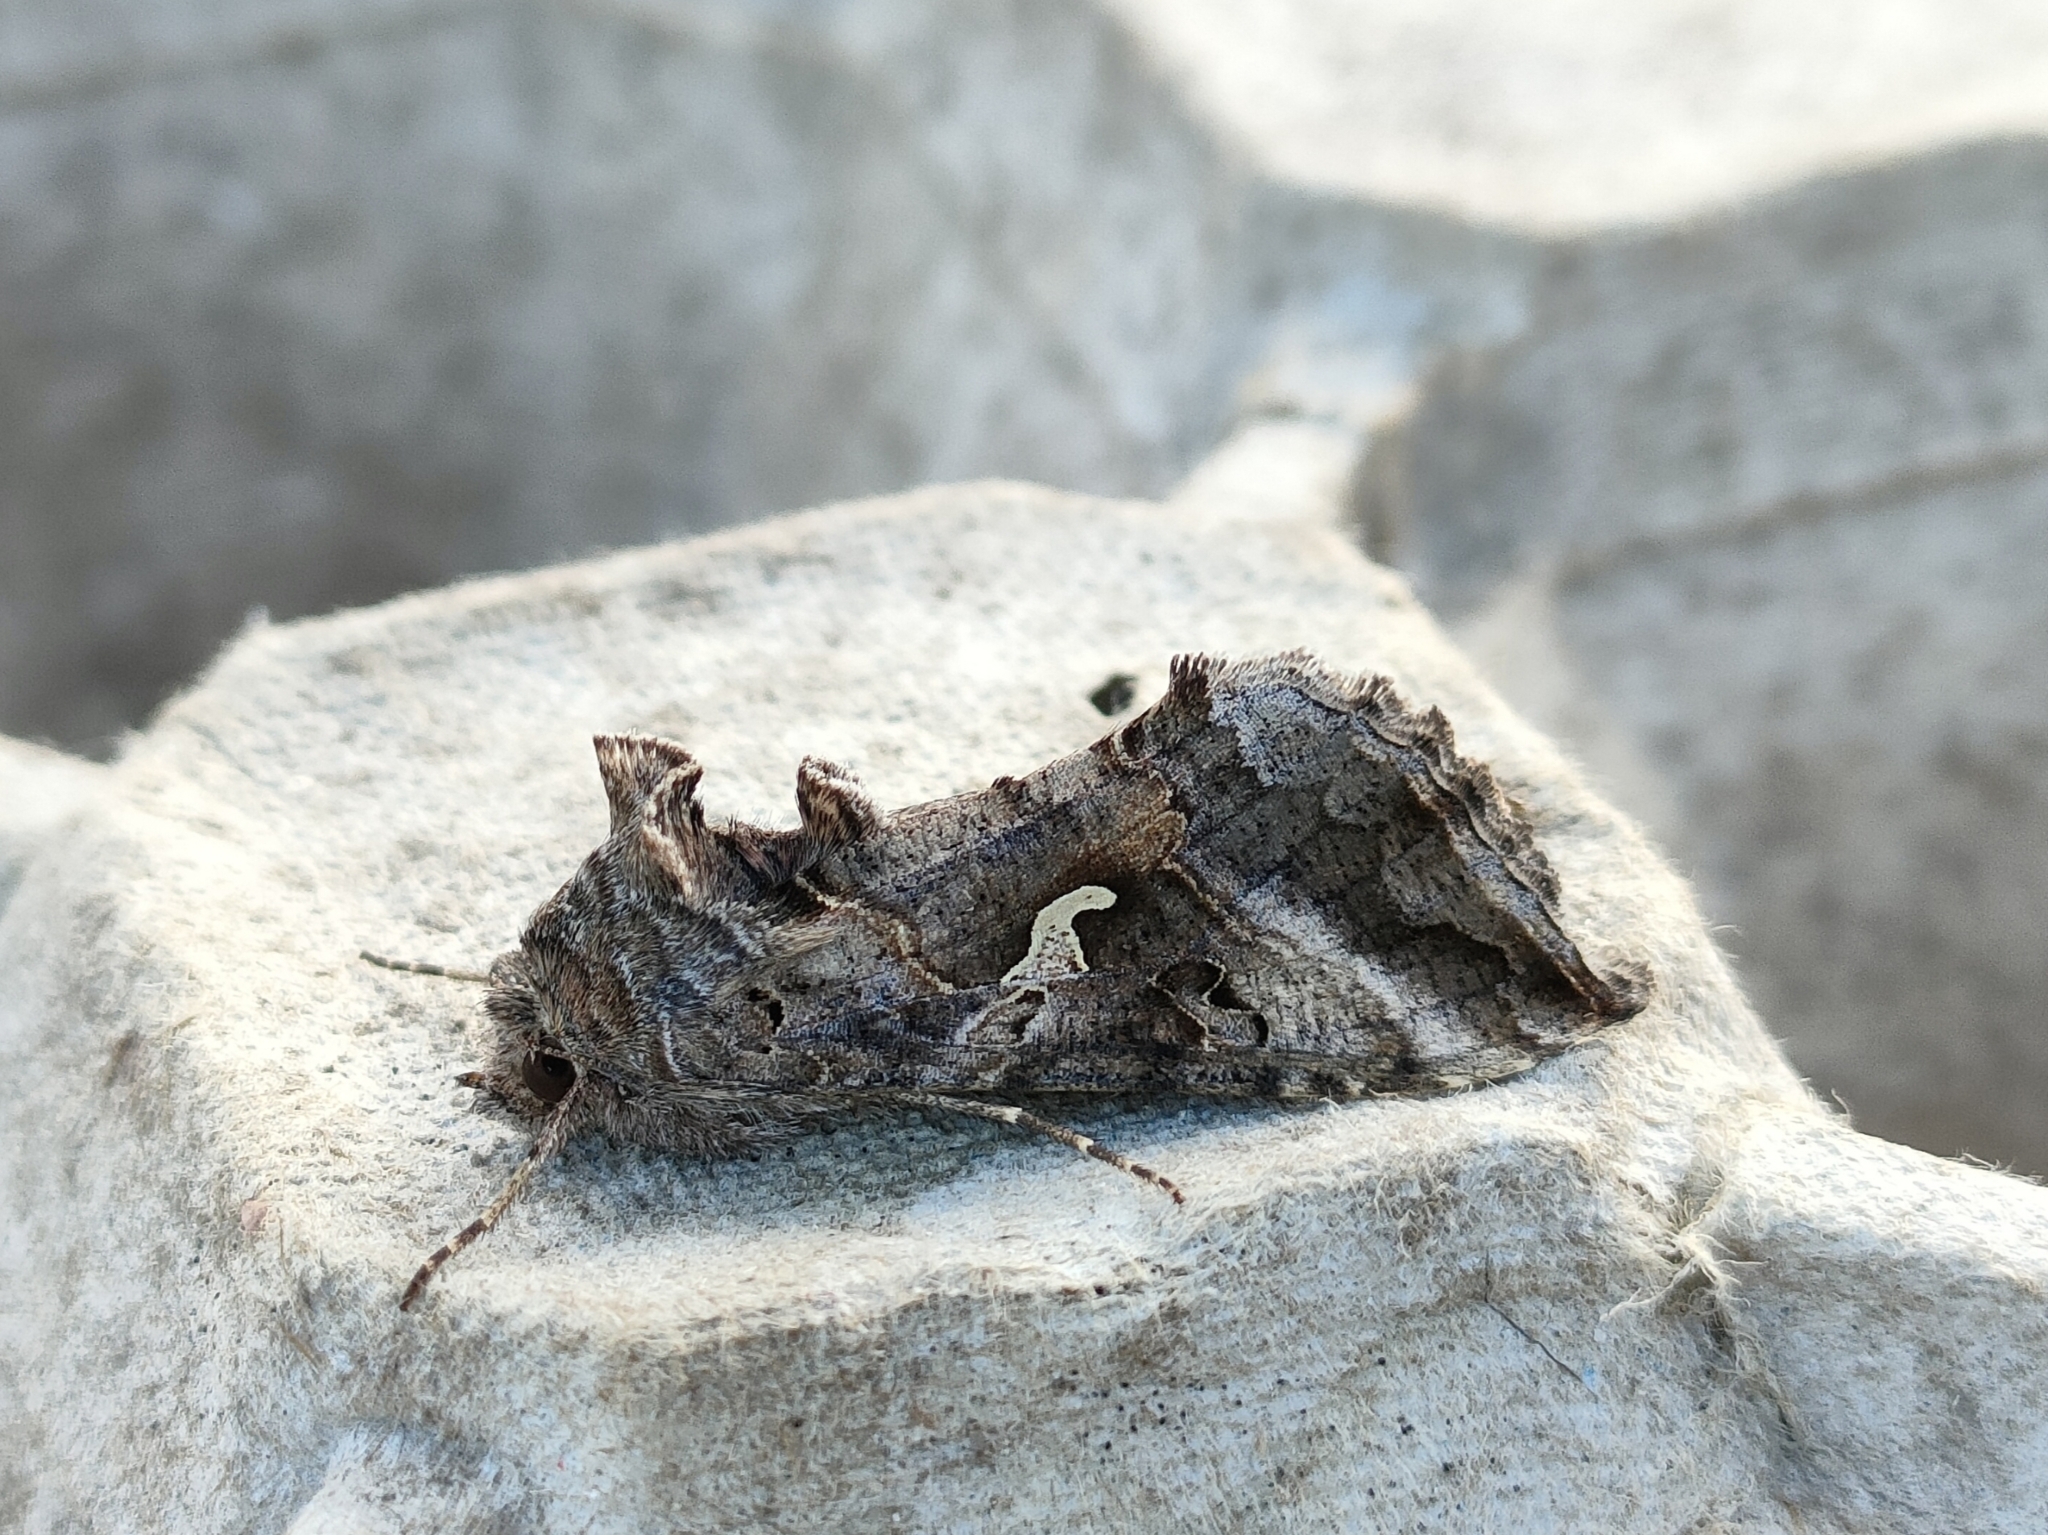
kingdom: Animalia
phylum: Arthropoda
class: Insecta
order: Lepidoptera
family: Noctuidae
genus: Autographa
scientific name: Autographa gamma
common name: Silver y
